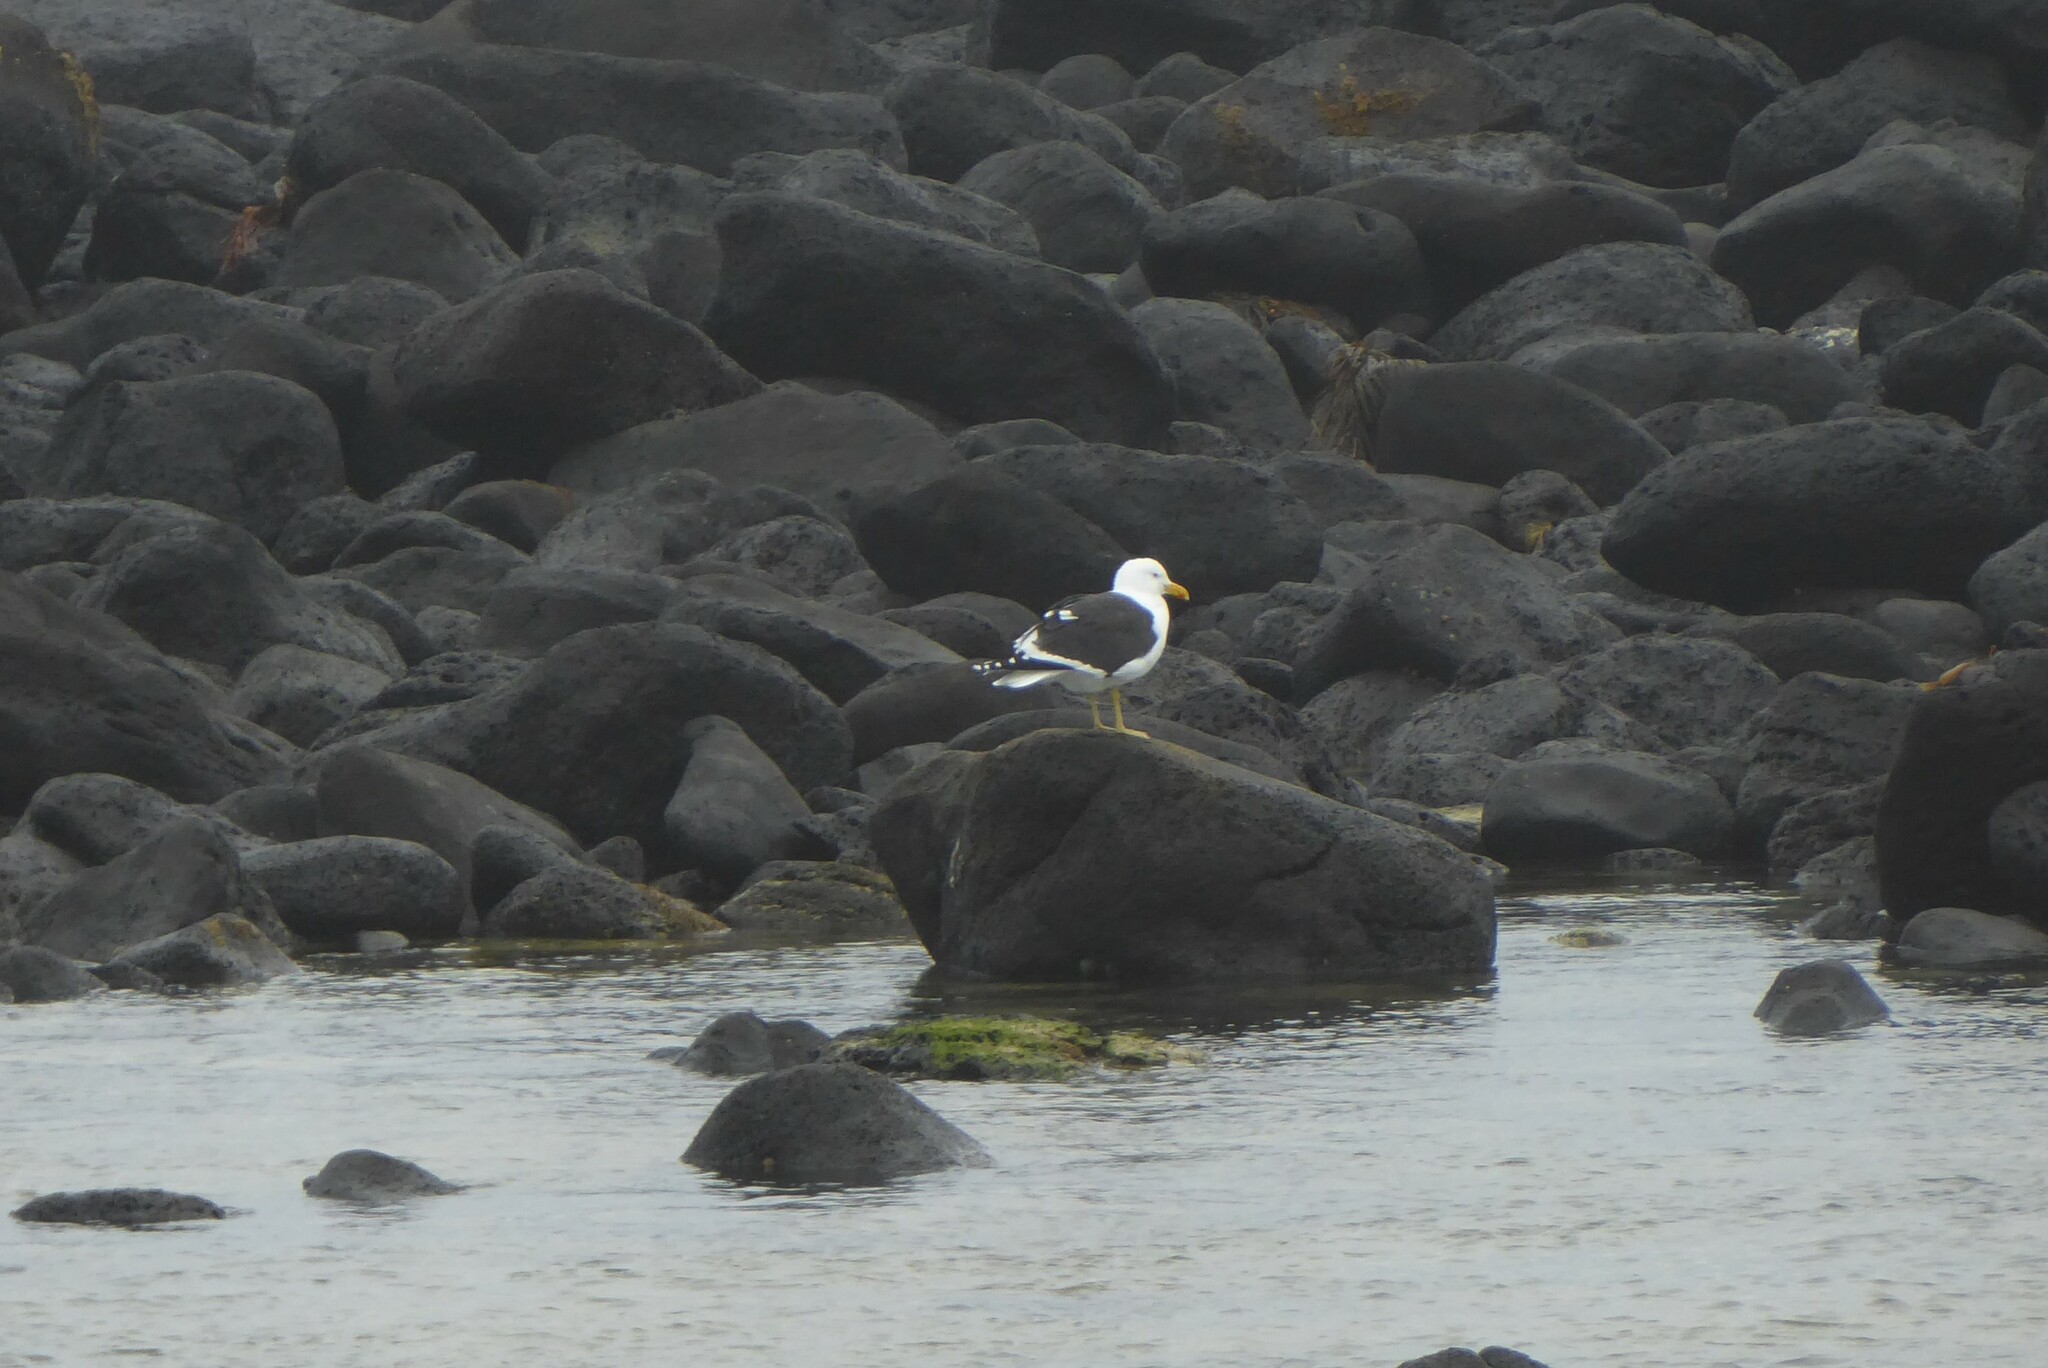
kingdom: Animalia
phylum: Chordata
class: Aves
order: Charadriiformes
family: Laridae
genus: Larus
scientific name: Larus dominicanus
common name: Kelp gull
